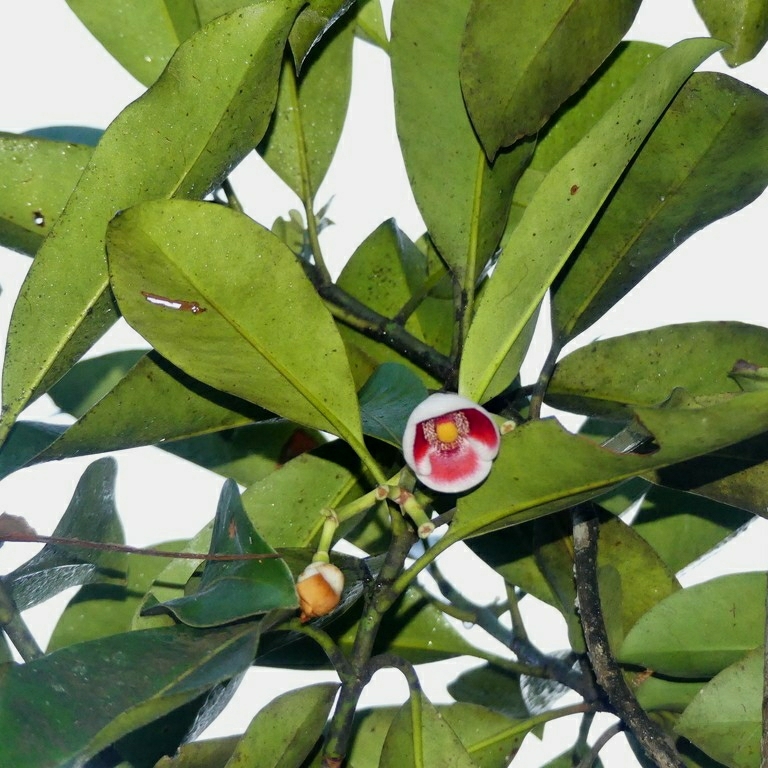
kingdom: Plantae
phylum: Tracheophyta
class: Magnoliopsida
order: Malpighiales
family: Clusiaceae
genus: Clusia
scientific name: Clusia nemorosa
